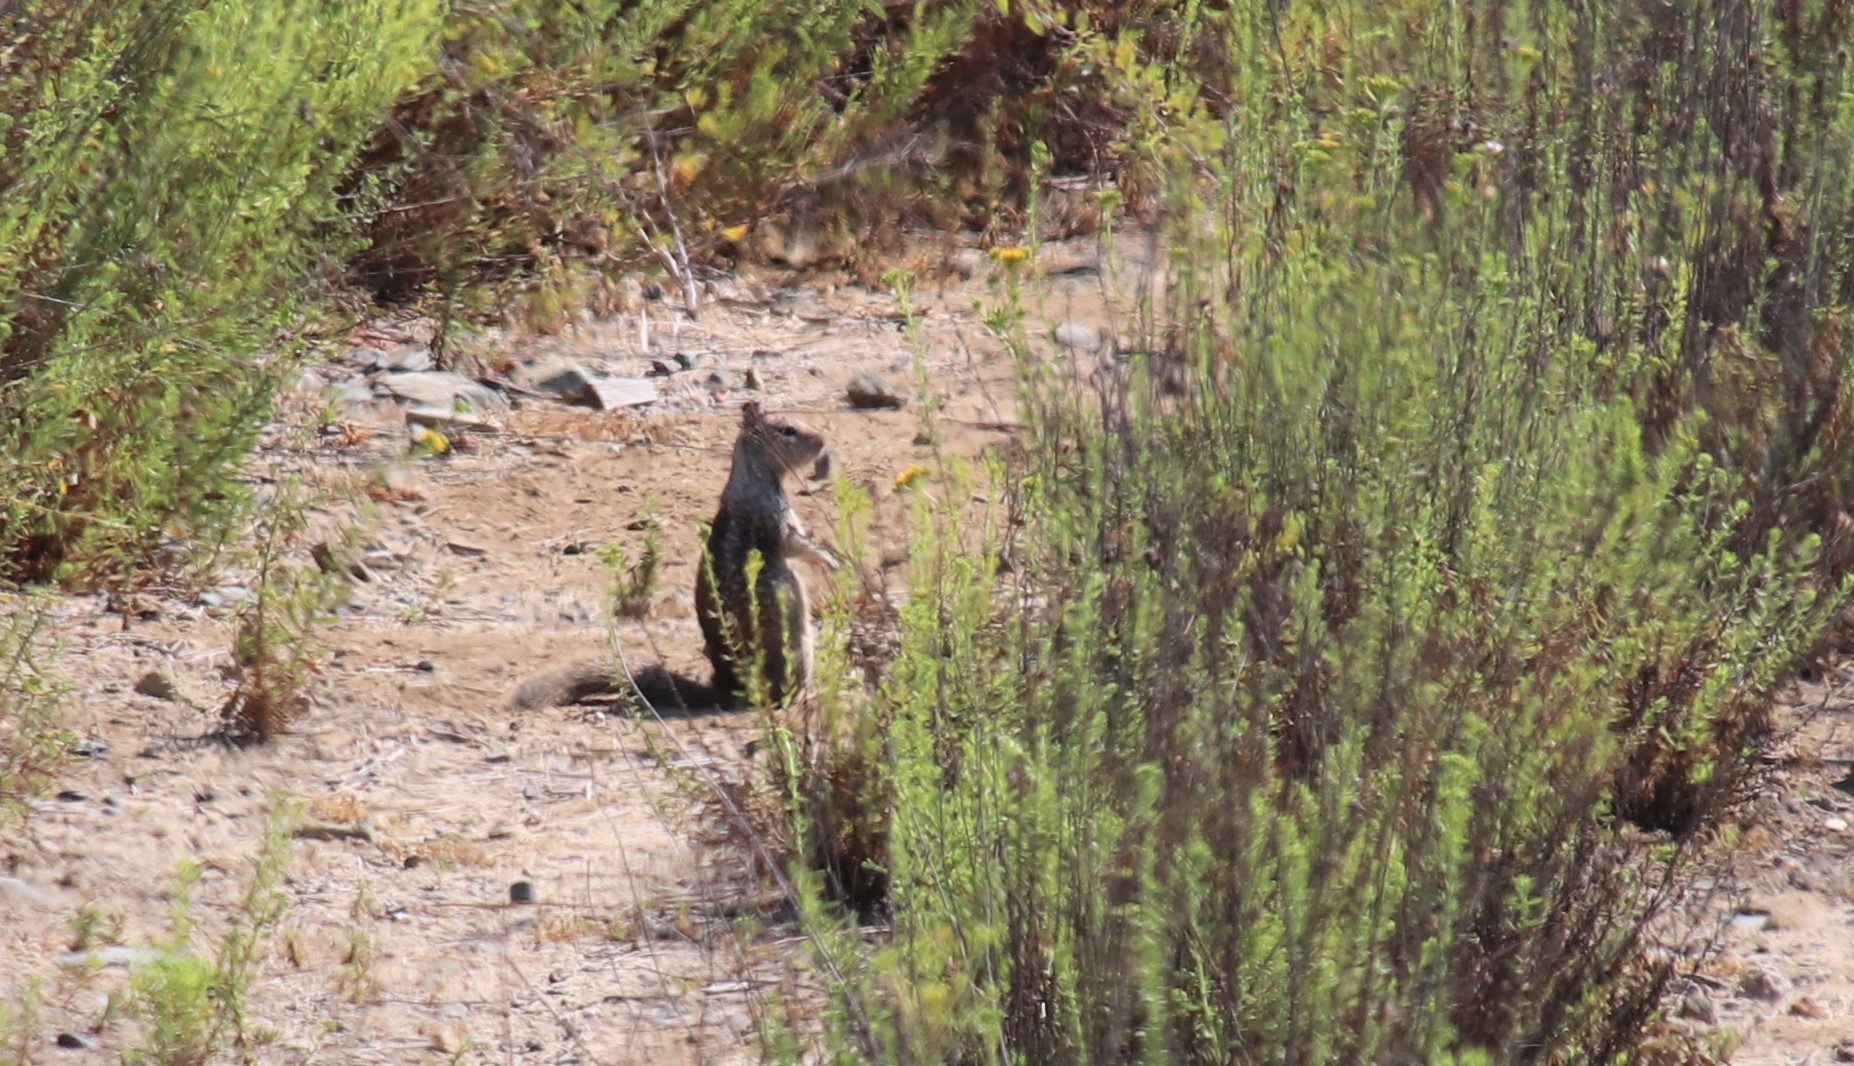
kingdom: Animalia
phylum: Chordata
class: Mammalia
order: Rodentia
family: Sciuridae
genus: Otospermophilus
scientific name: Otospermophilus beecheyi
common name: California ground squirrel
